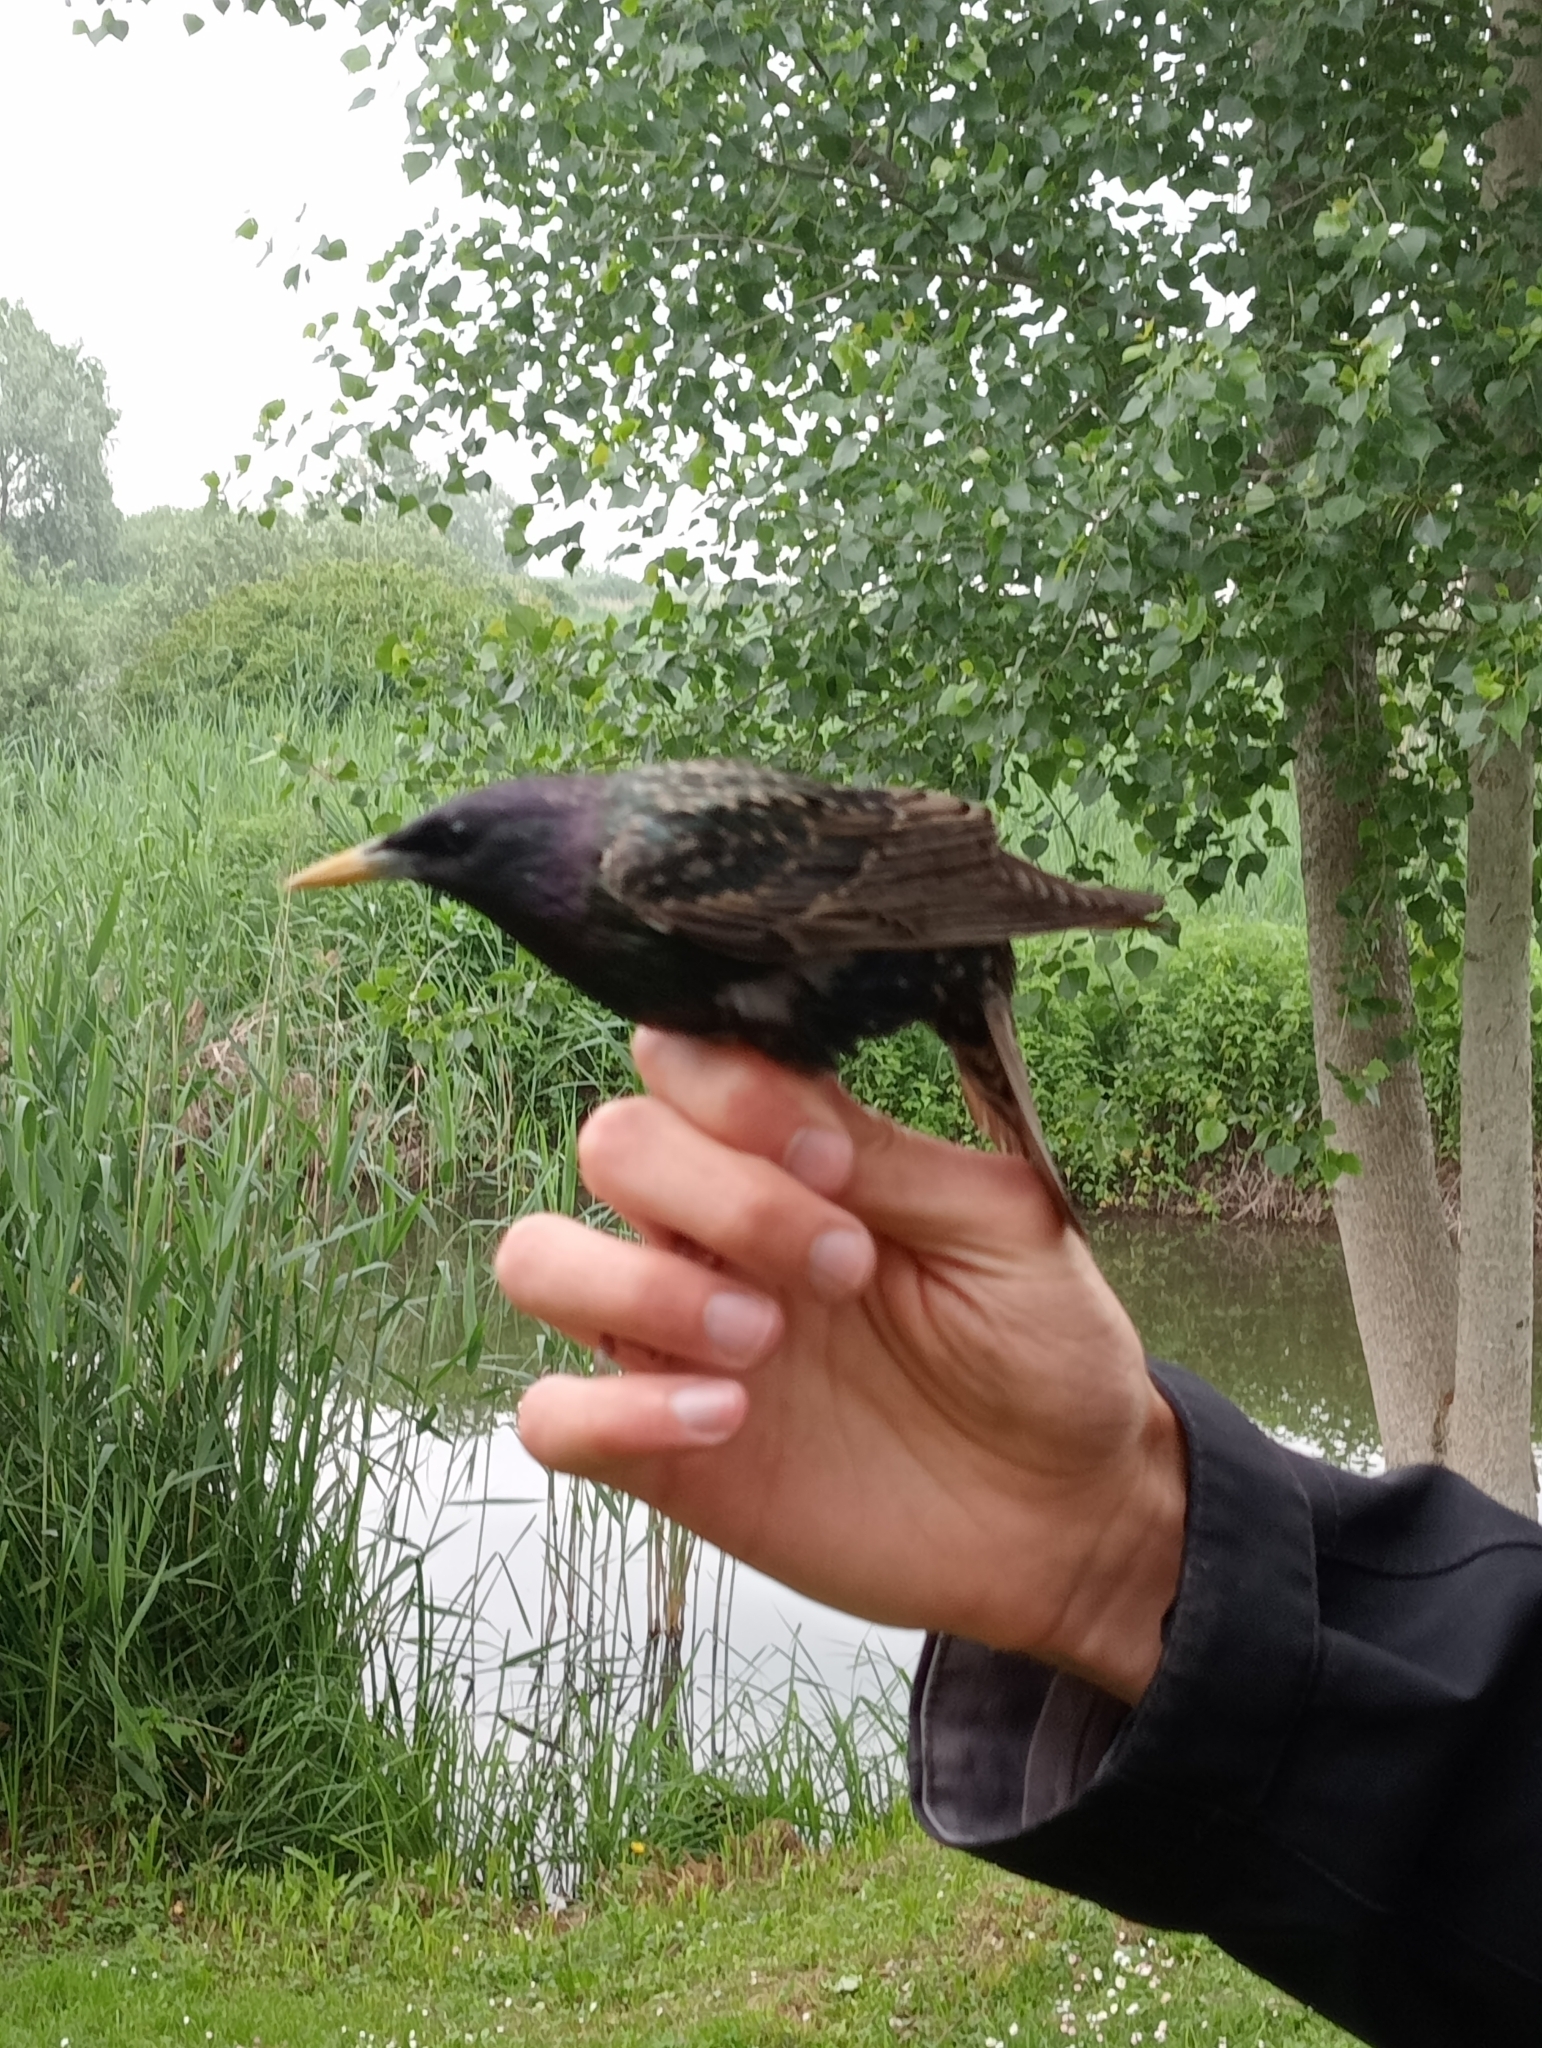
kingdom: Animalia
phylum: Chordata
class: Aves
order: Passeriformes
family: Sturnidae
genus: Sturnus
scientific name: Sturnus vulgaris
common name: Common starling
